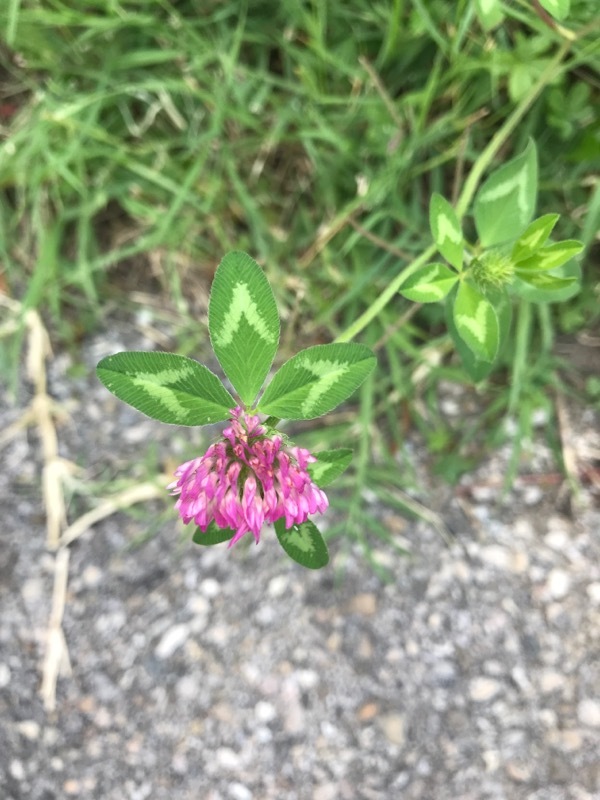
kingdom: Plantae
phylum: Tracheophyta
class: Magnoliopsida
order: Fabales
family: Fabaceae
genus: Trifolium
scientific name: Trifolium pratense
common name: Red clover
